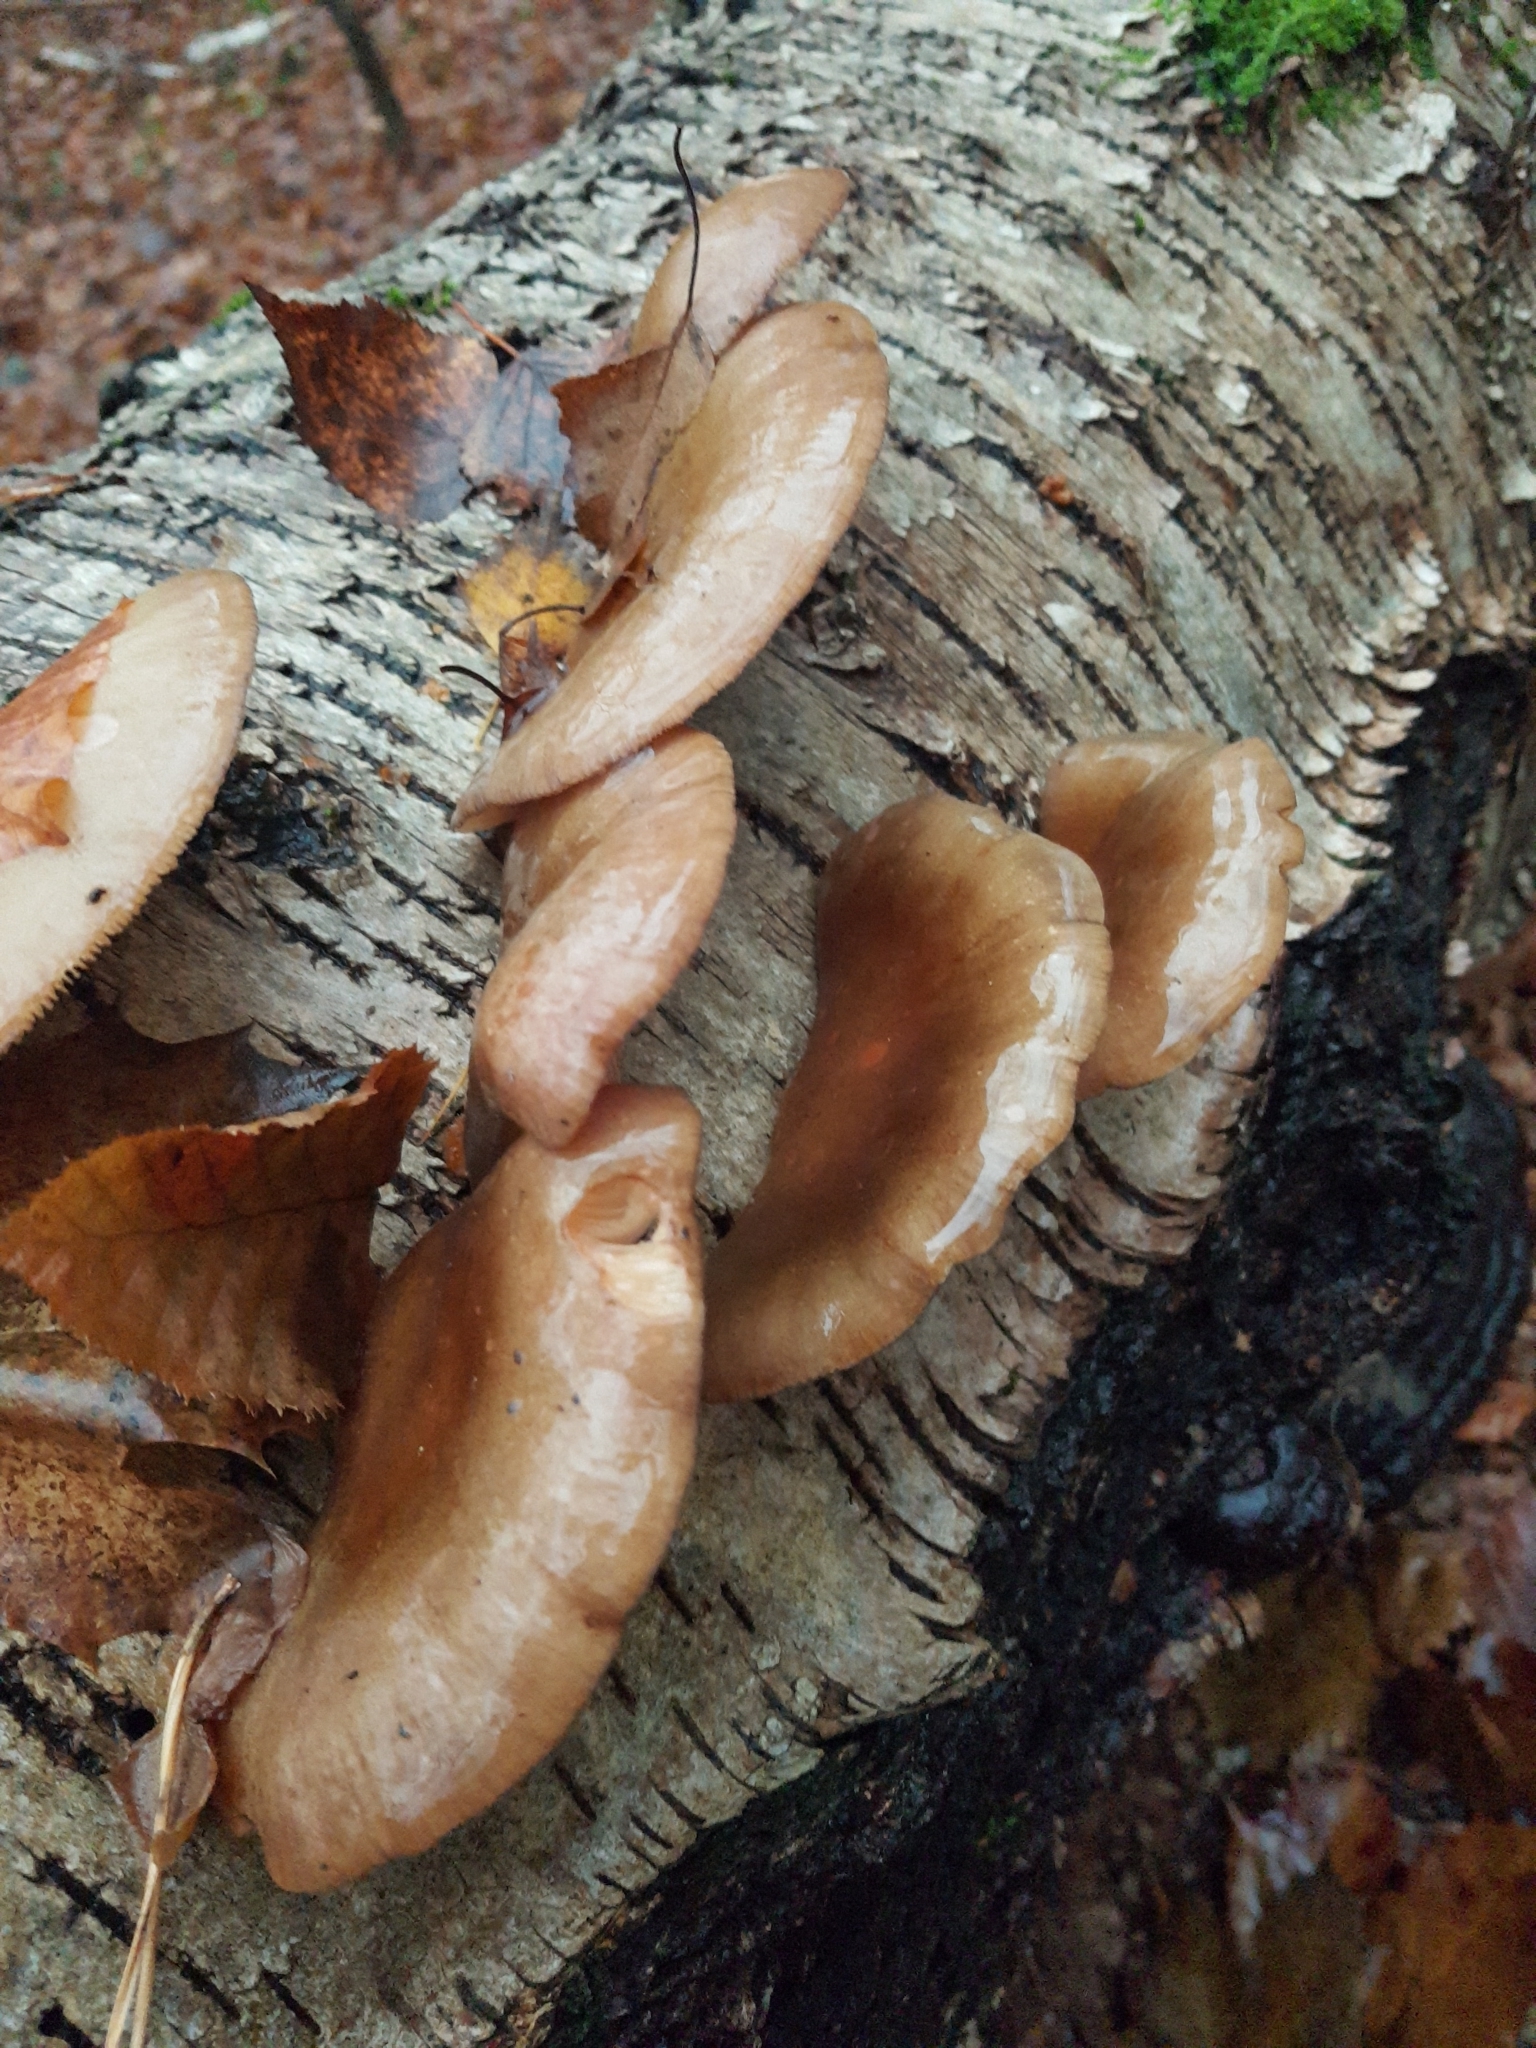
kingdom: Fungi
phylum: Basidiomycota
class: Agaricomycetes
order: Agaricales
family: Sarcomyxaceae
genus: Sarcomyxa
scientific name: Sarcomyxa serotina
